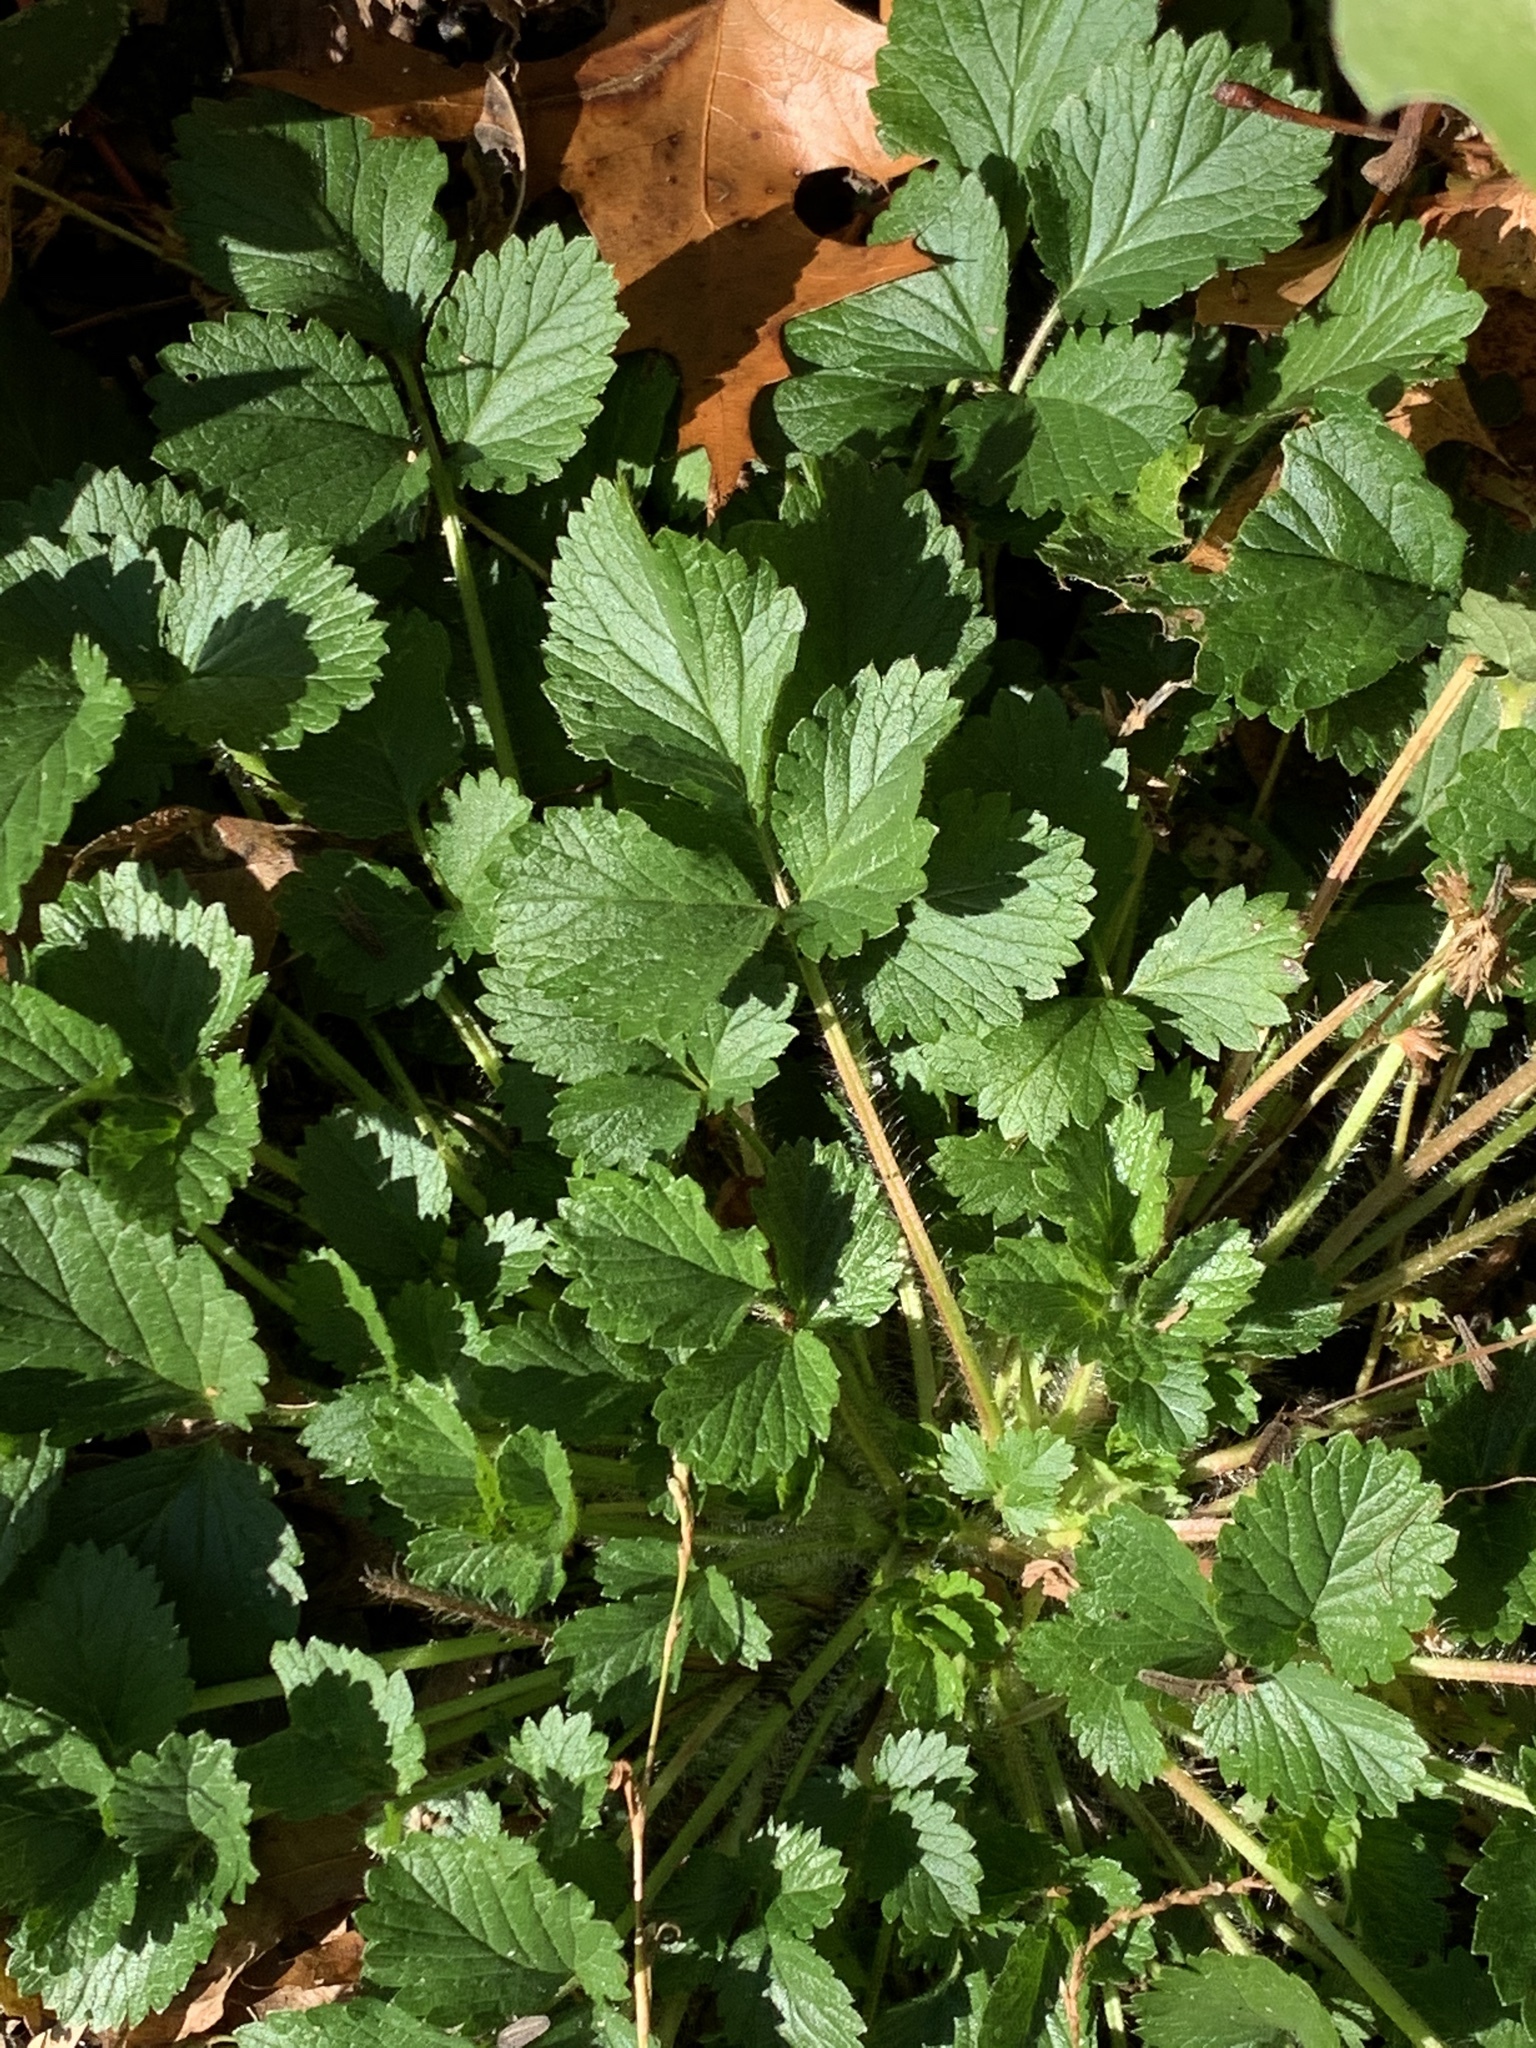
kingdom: Plantae
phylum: Tracheophyta
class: Magnoliopsida
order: Rosales
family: Rosaceae
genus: Potentilla
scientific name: Potentilla indica
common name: Yellow-flowered strawberry
